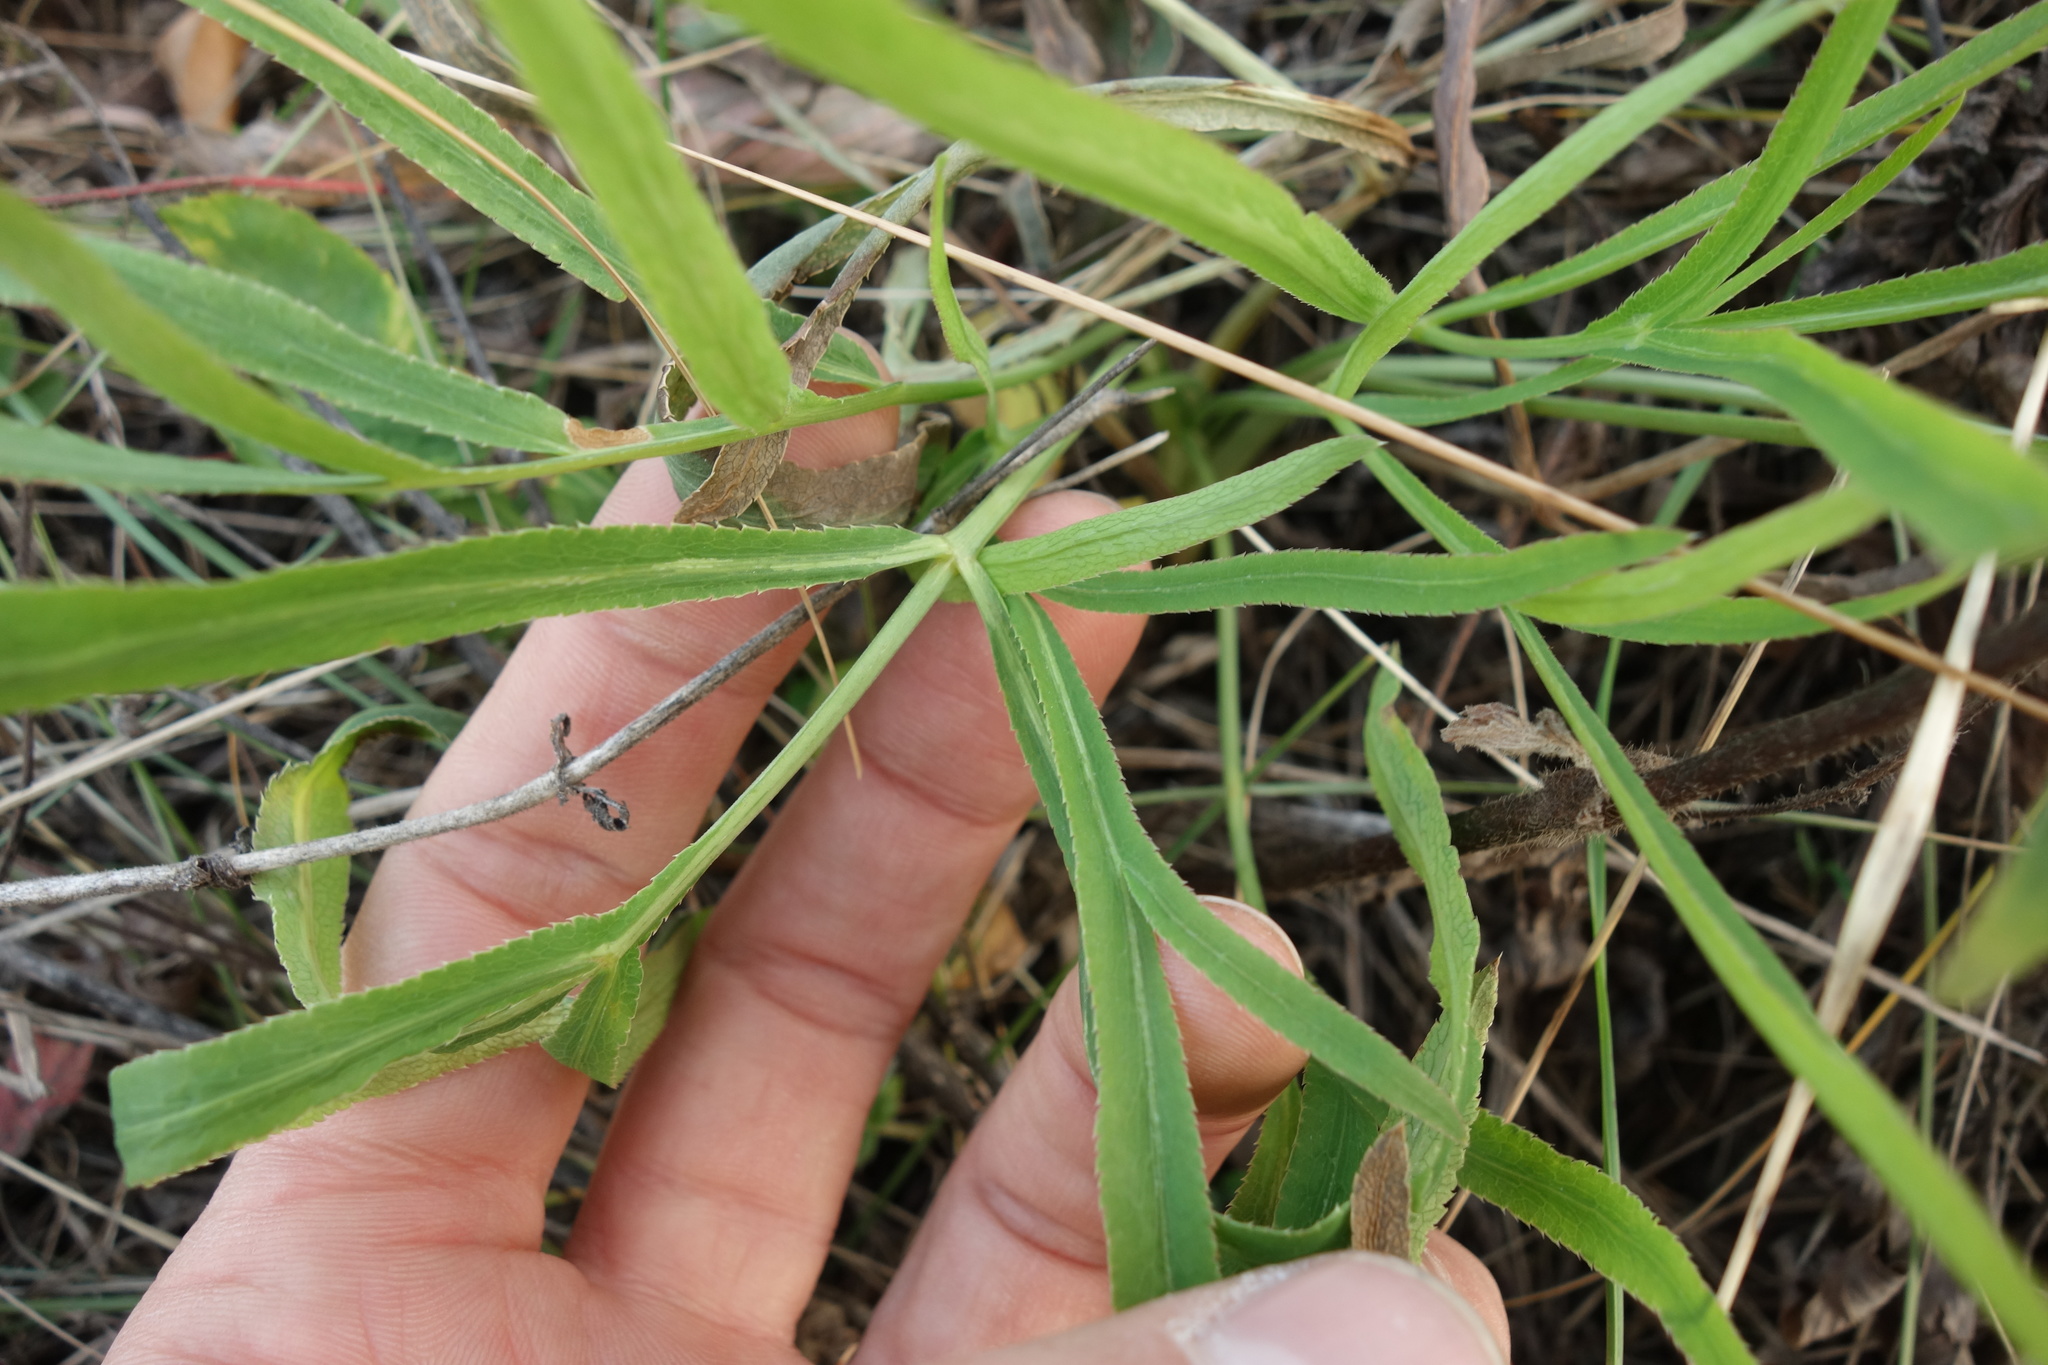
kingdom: Plantae
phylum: Tracheophyta
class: Magnoliopsida
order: Apiales
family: Apiaceae
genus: Falcaria
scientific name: Falcaria vulgaris
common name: Longleaf
